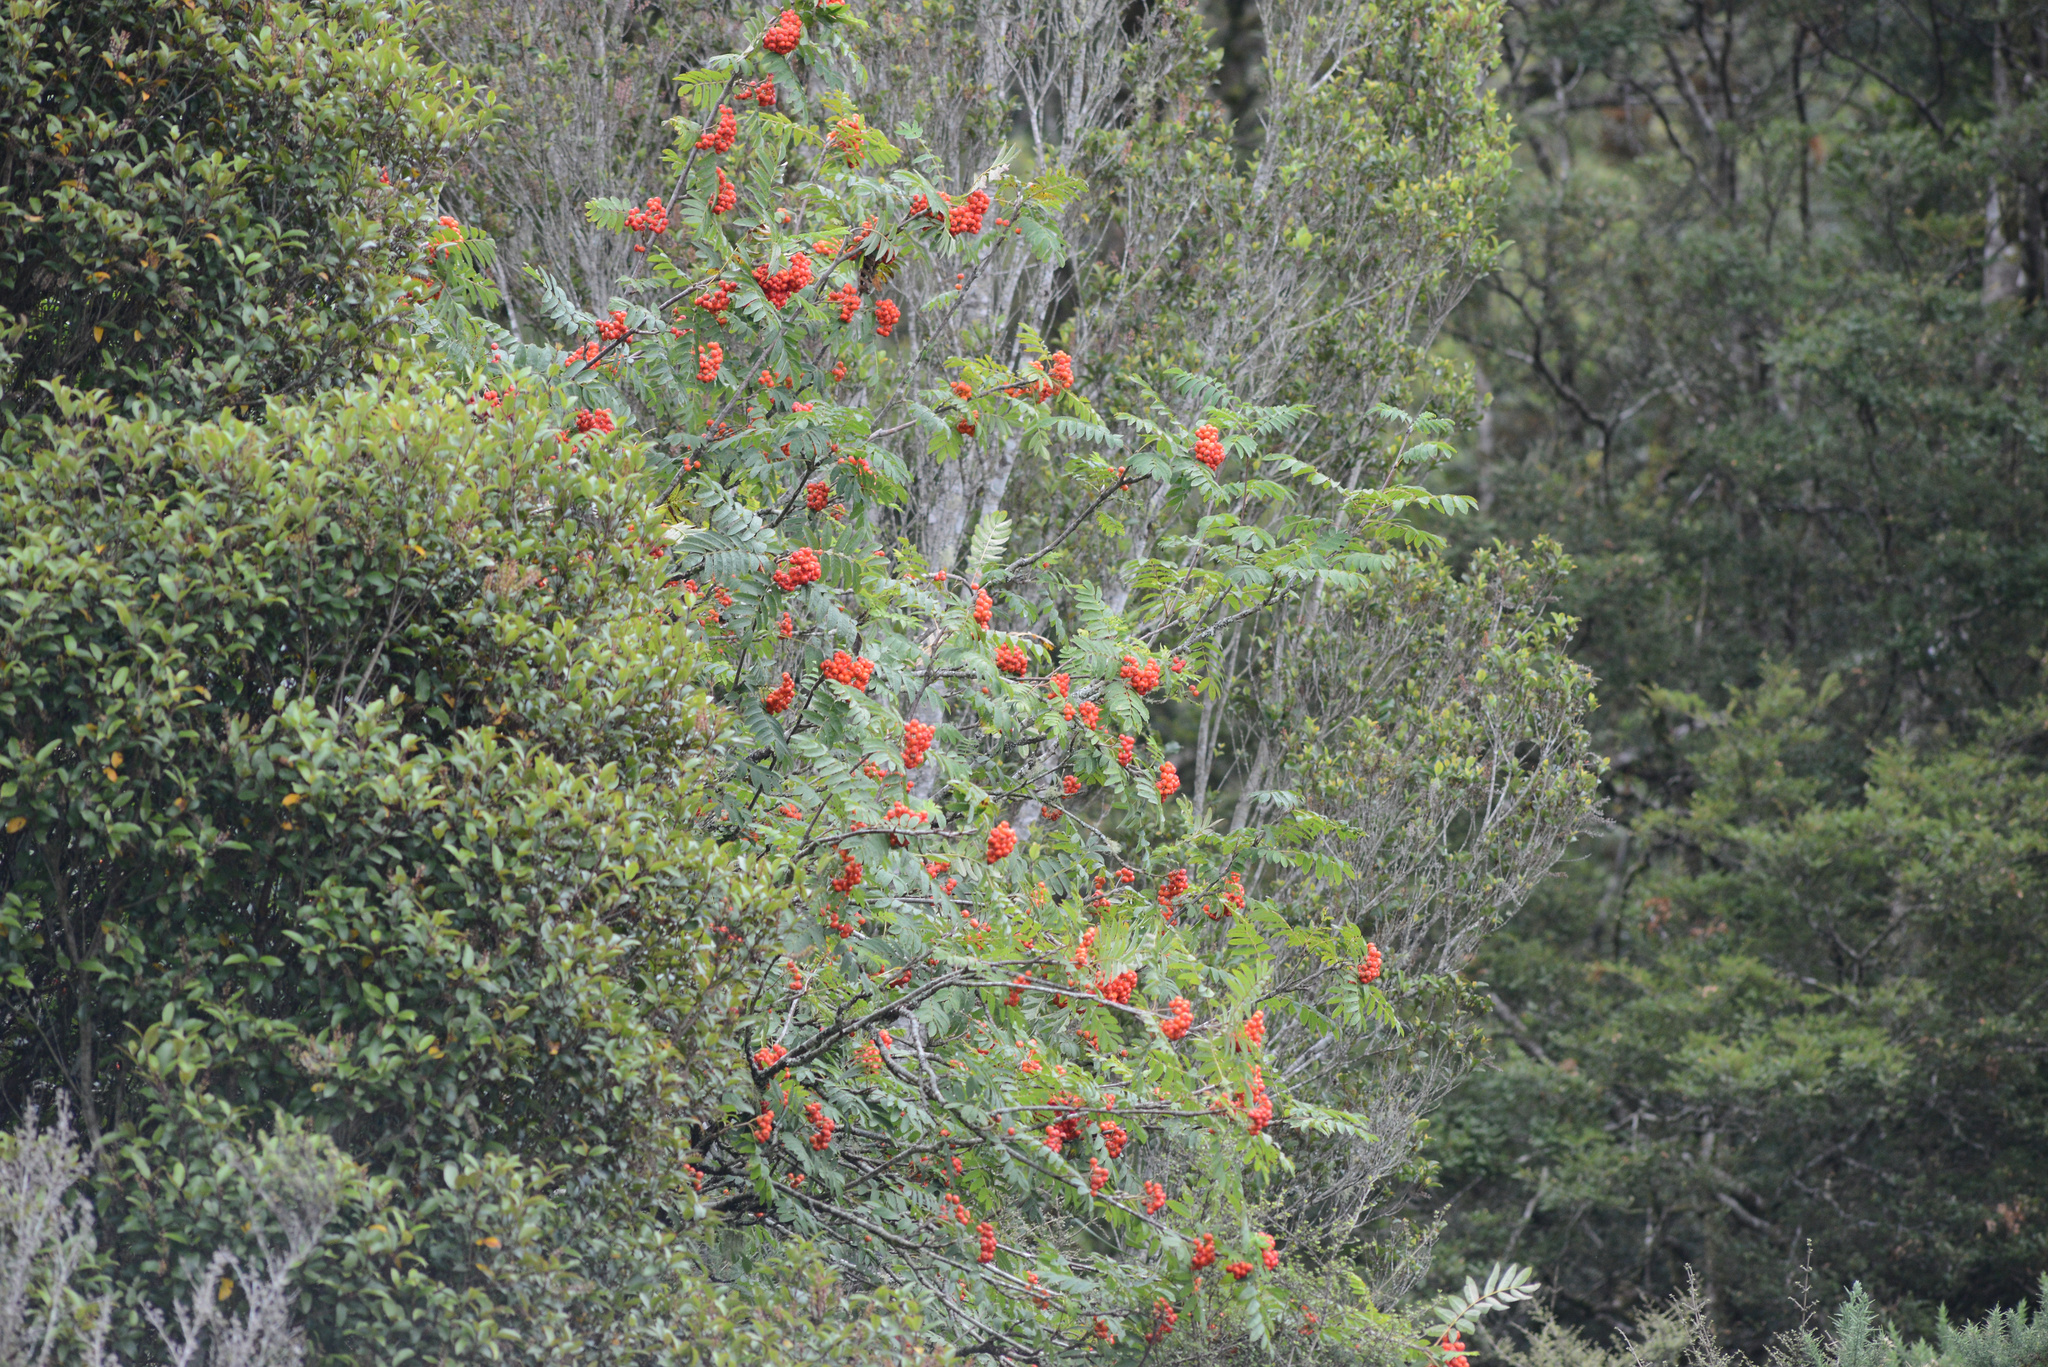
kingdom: Plantae
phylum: Tracheophyta
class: Magnoliopsida
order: Rosales
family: Rosaceae
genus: Sorbus
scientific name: Sorbus aucuparia
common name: Rowan
